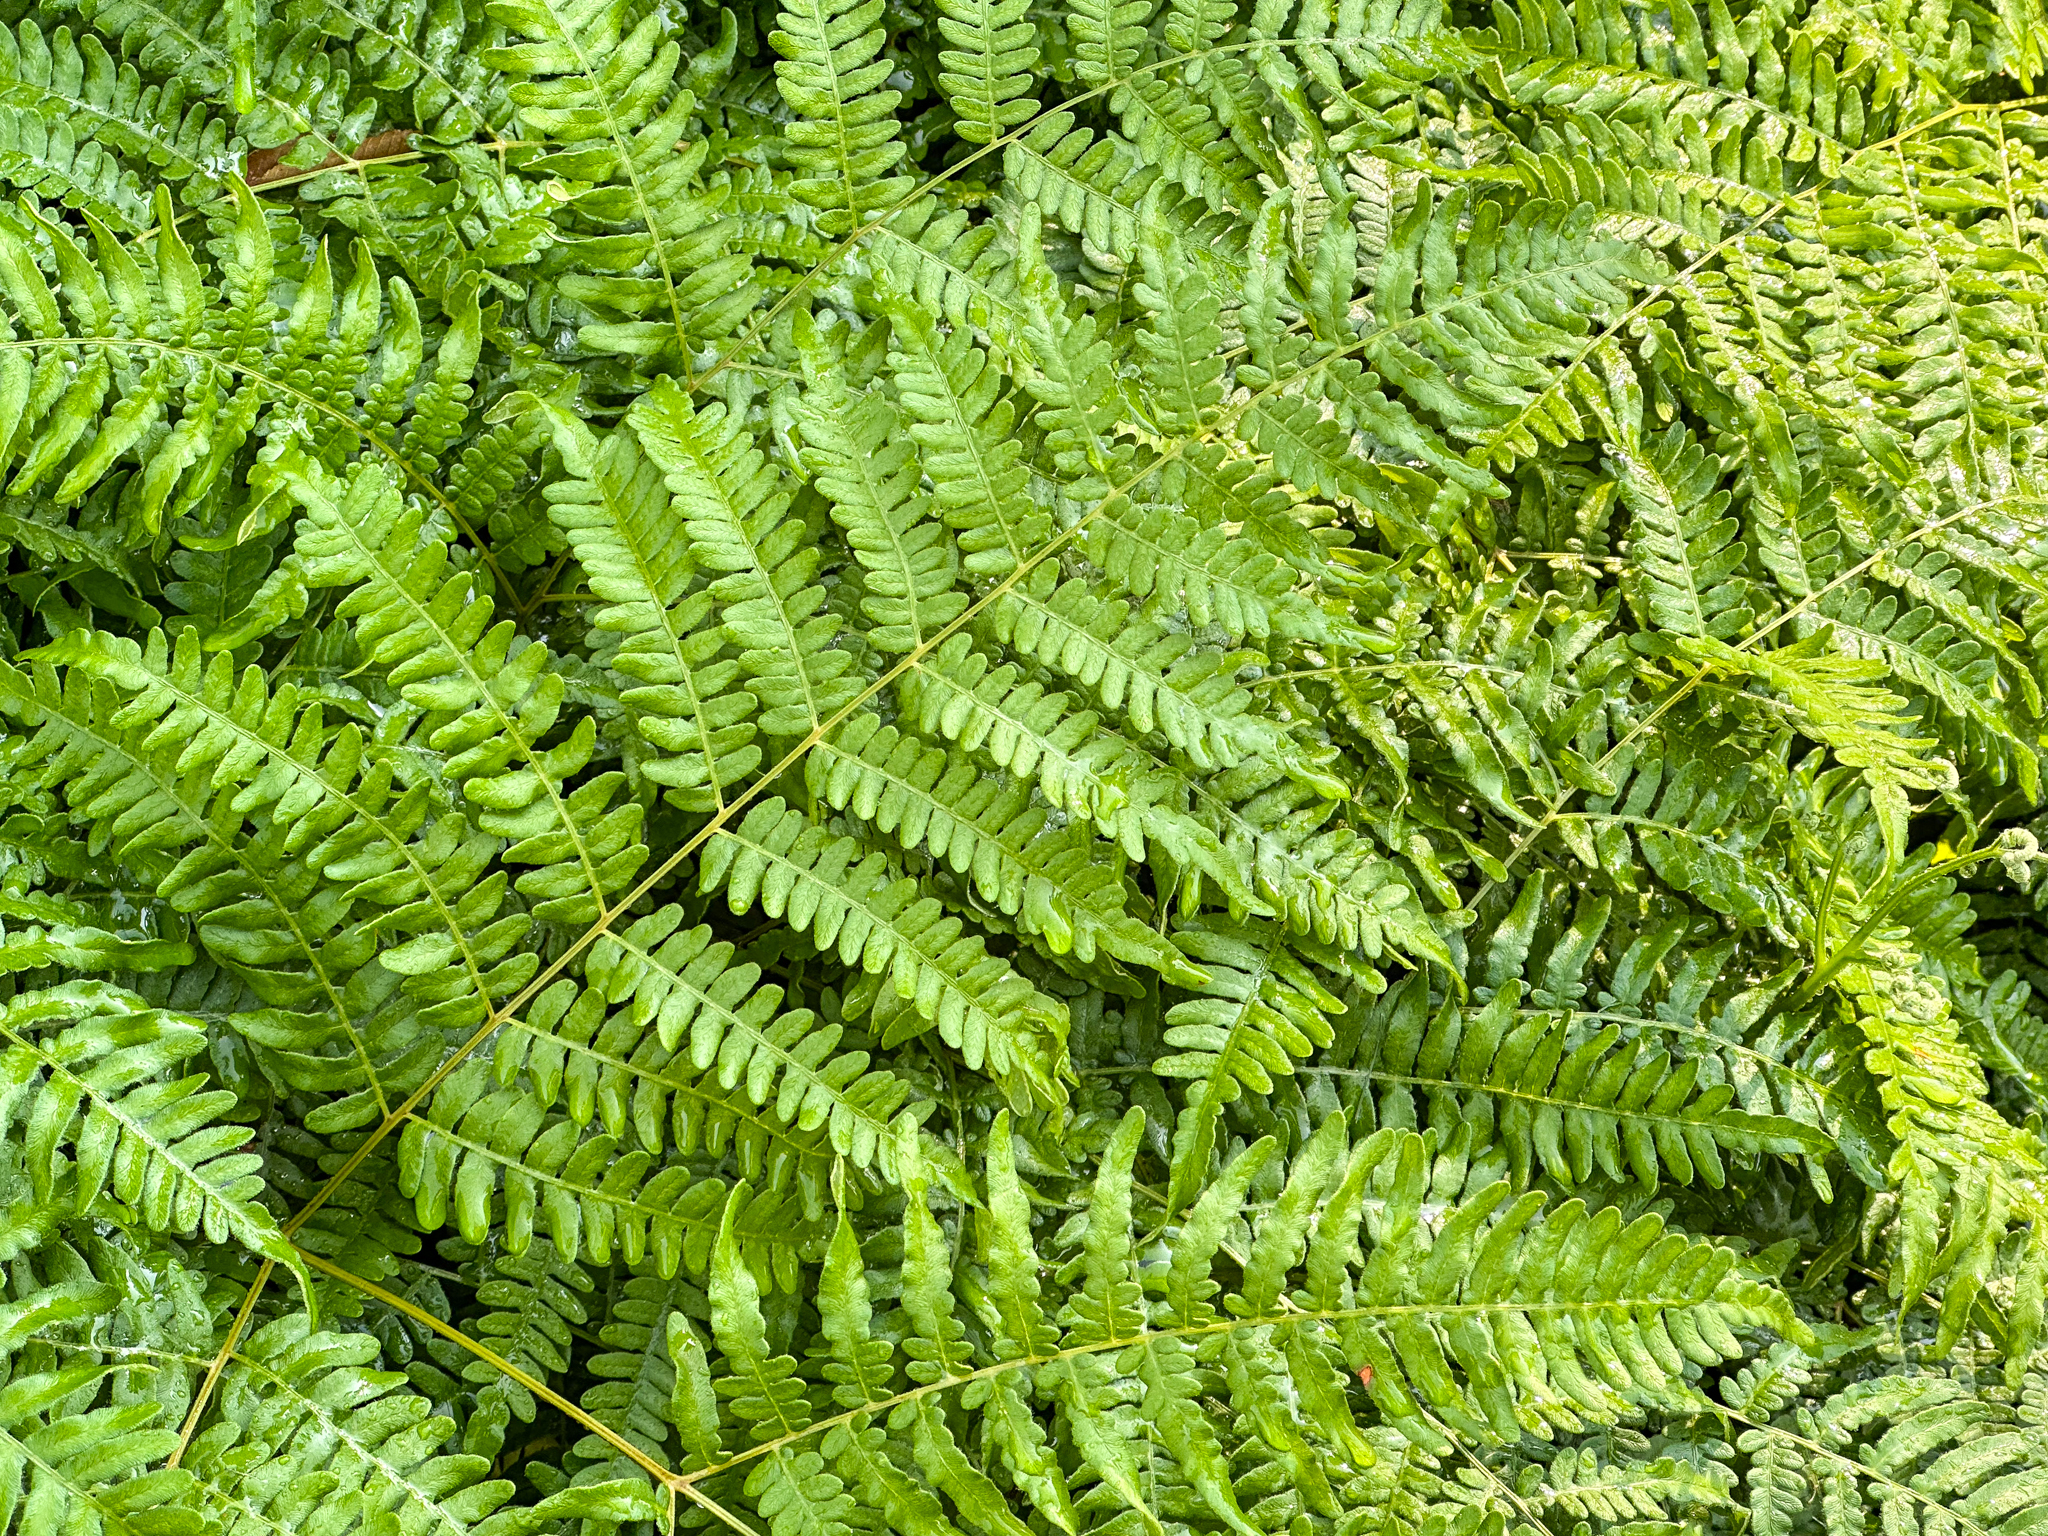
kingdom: Plantae
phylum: Tracheophyta
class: Polypodiopsida
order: Polypodiales
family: Dennstaedtiaceae
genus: Pteridium
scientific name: Pteridium aquilinum
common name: Bracken
